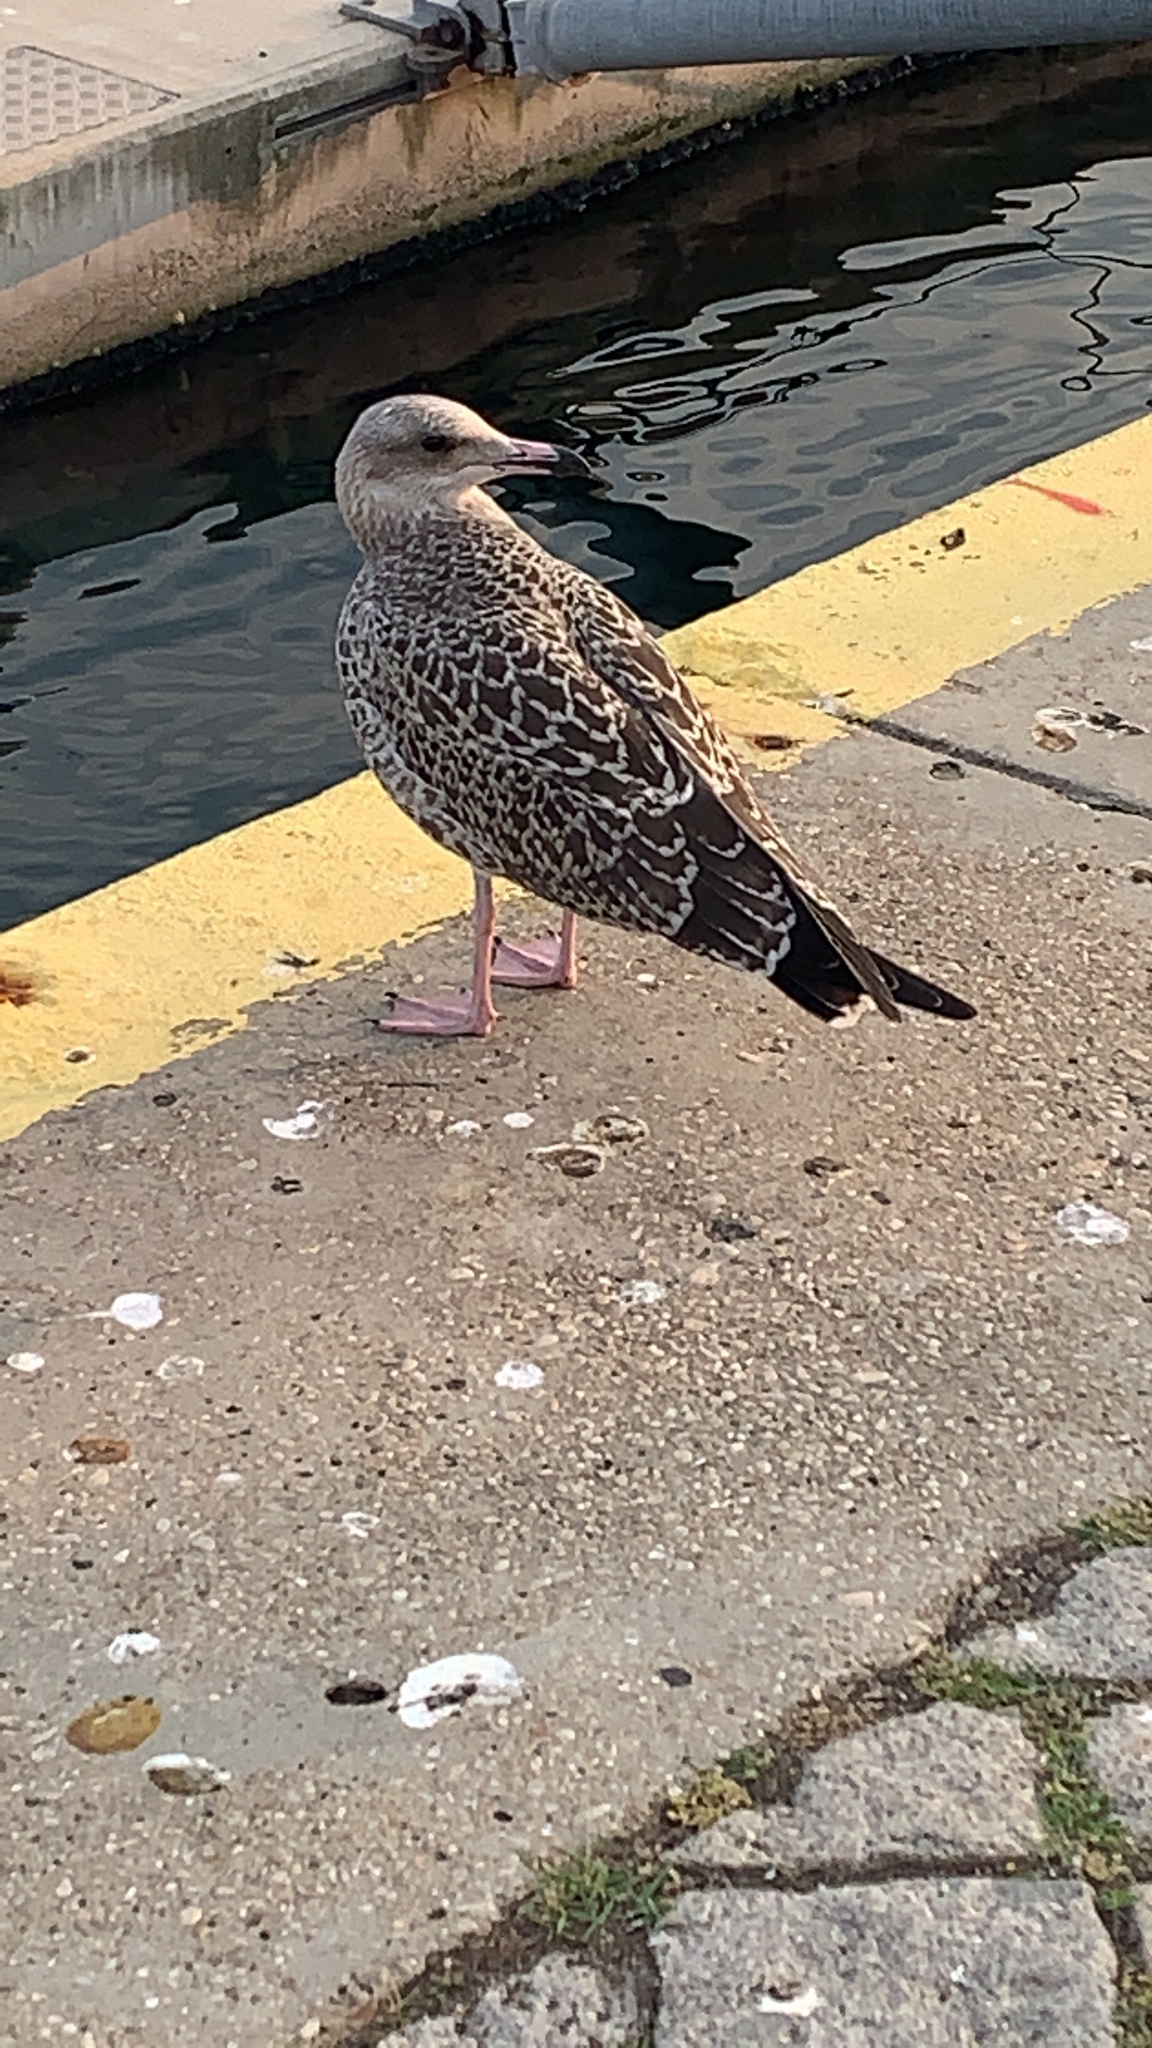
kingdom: Animalia
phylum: Chordata
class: Aves
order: Charadriiformes
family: Laridae
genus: Larus
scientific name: Larus michahellis
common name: Yellow-legged gull
